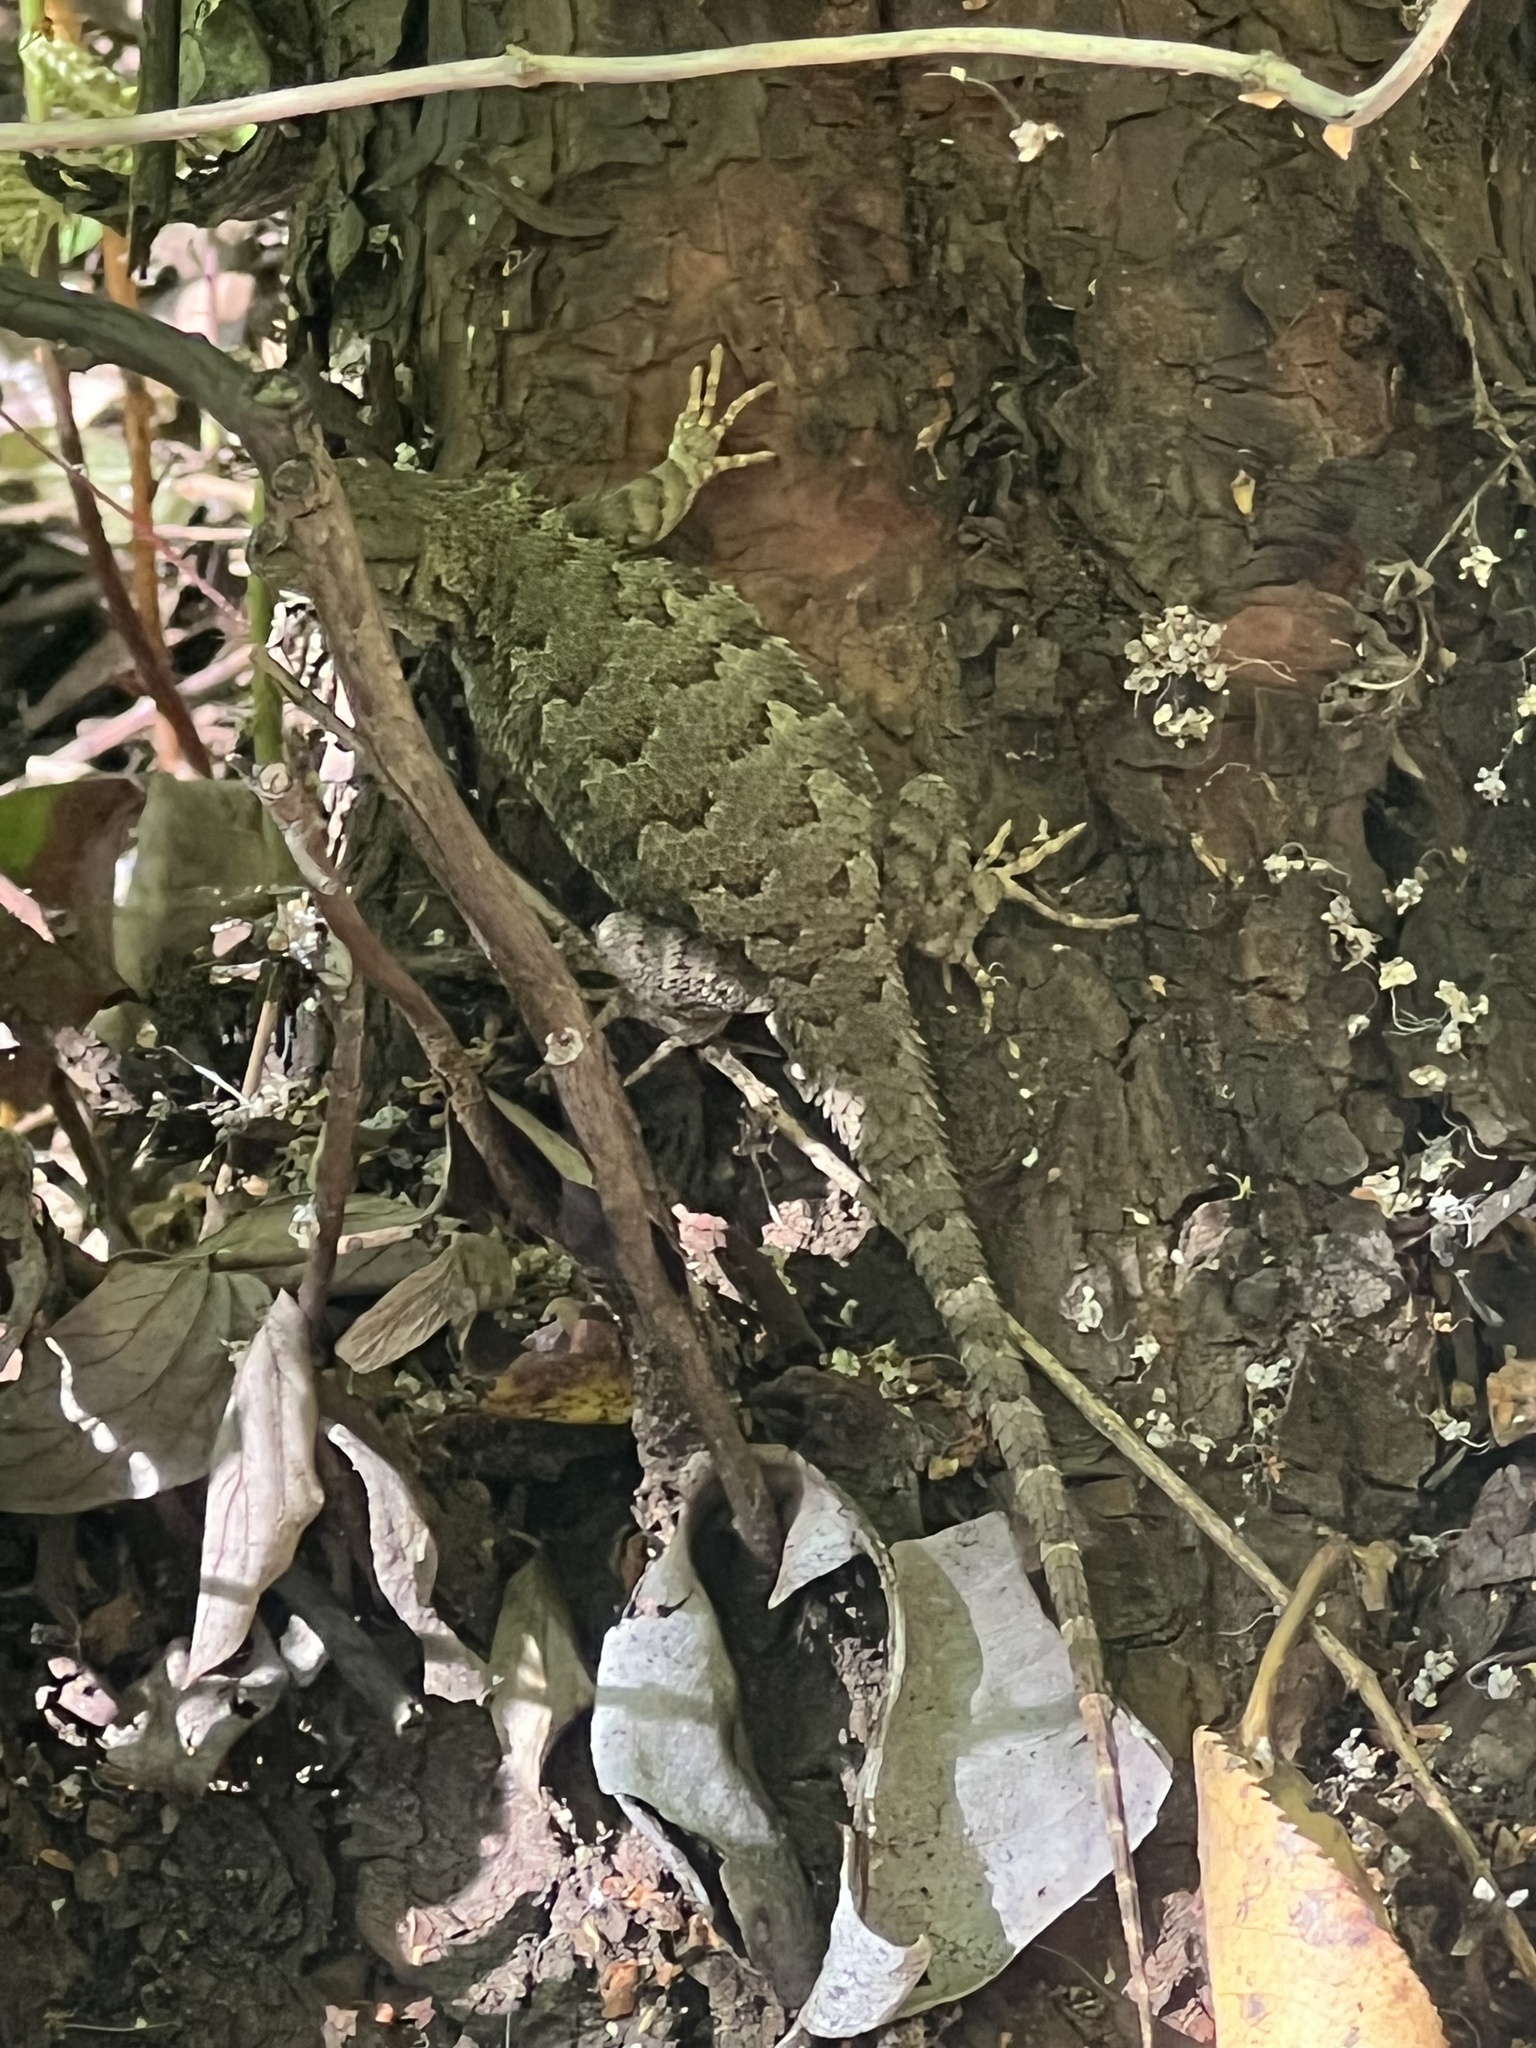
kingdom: Animalia
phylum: Chordata
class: Squamata
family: Phrynosomatidae
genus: Sceloporus
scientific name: Sceloporus occidentalis
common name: Western fence lizard
